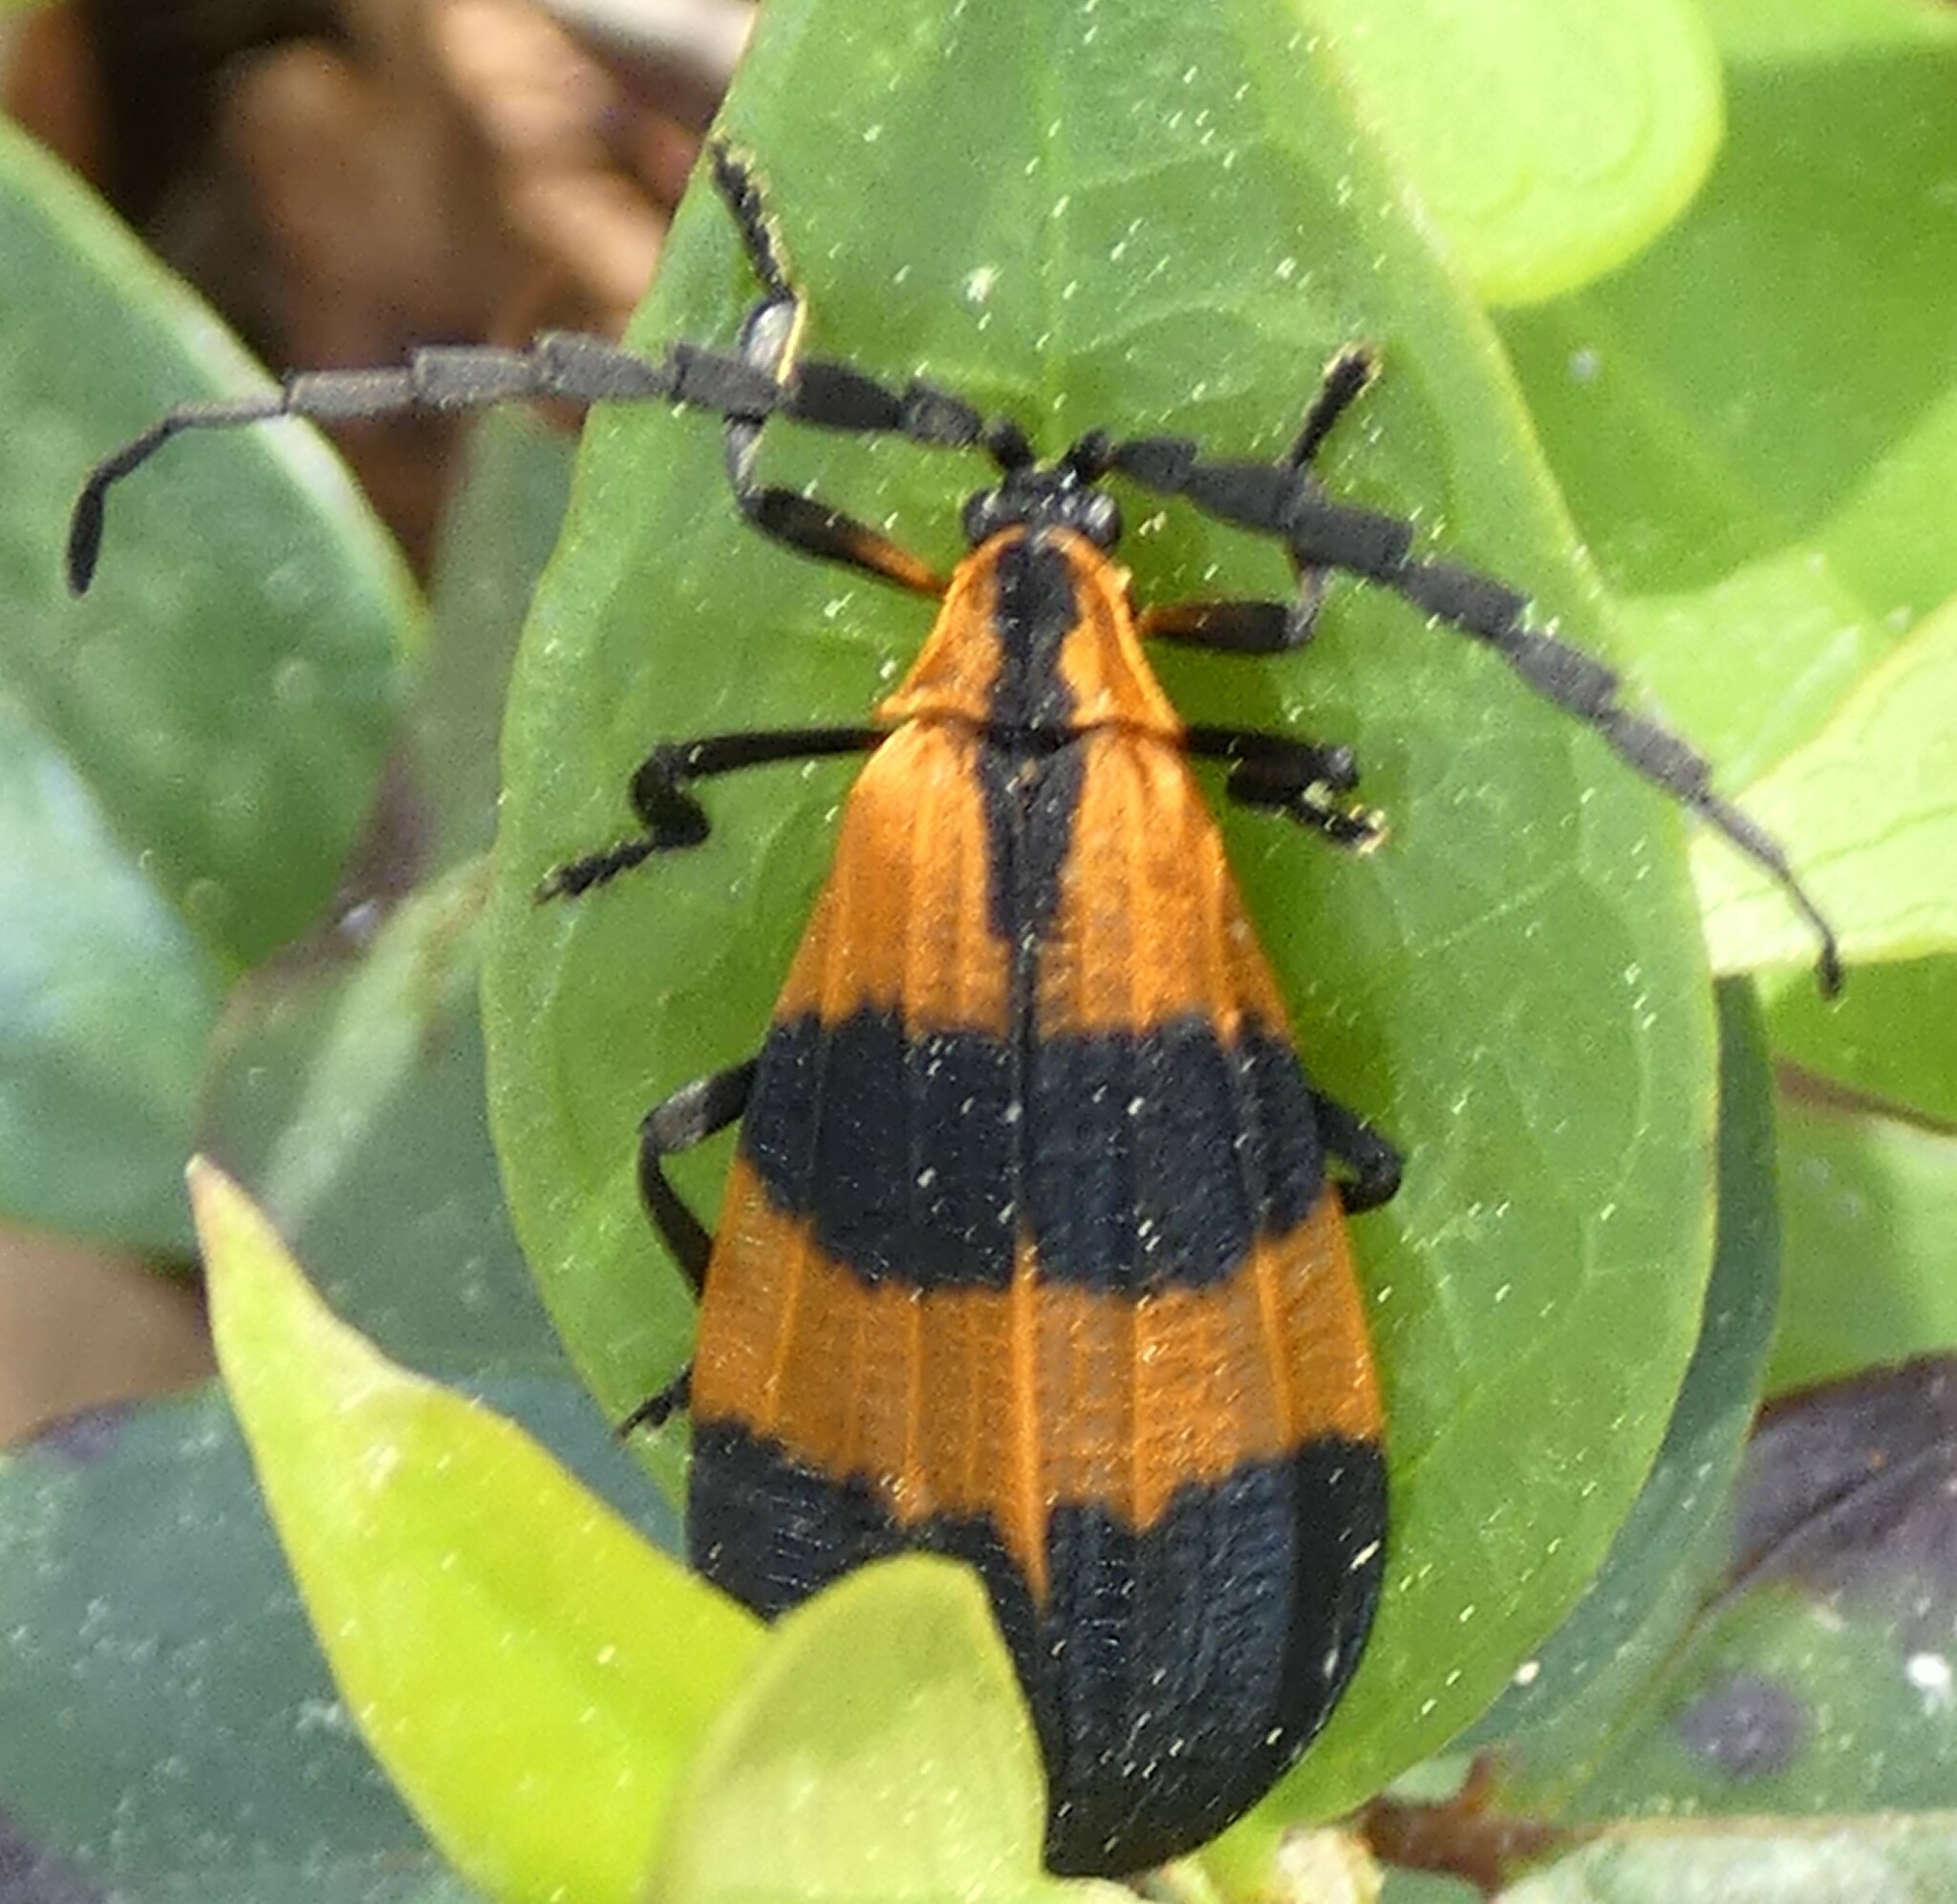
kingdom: Animalia
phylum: Arthropoda
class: Insecta
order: Coleoptera
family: Lycidae
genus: Calopteron
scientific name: Calopteron discrepans
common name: Banded net-winged beetle
